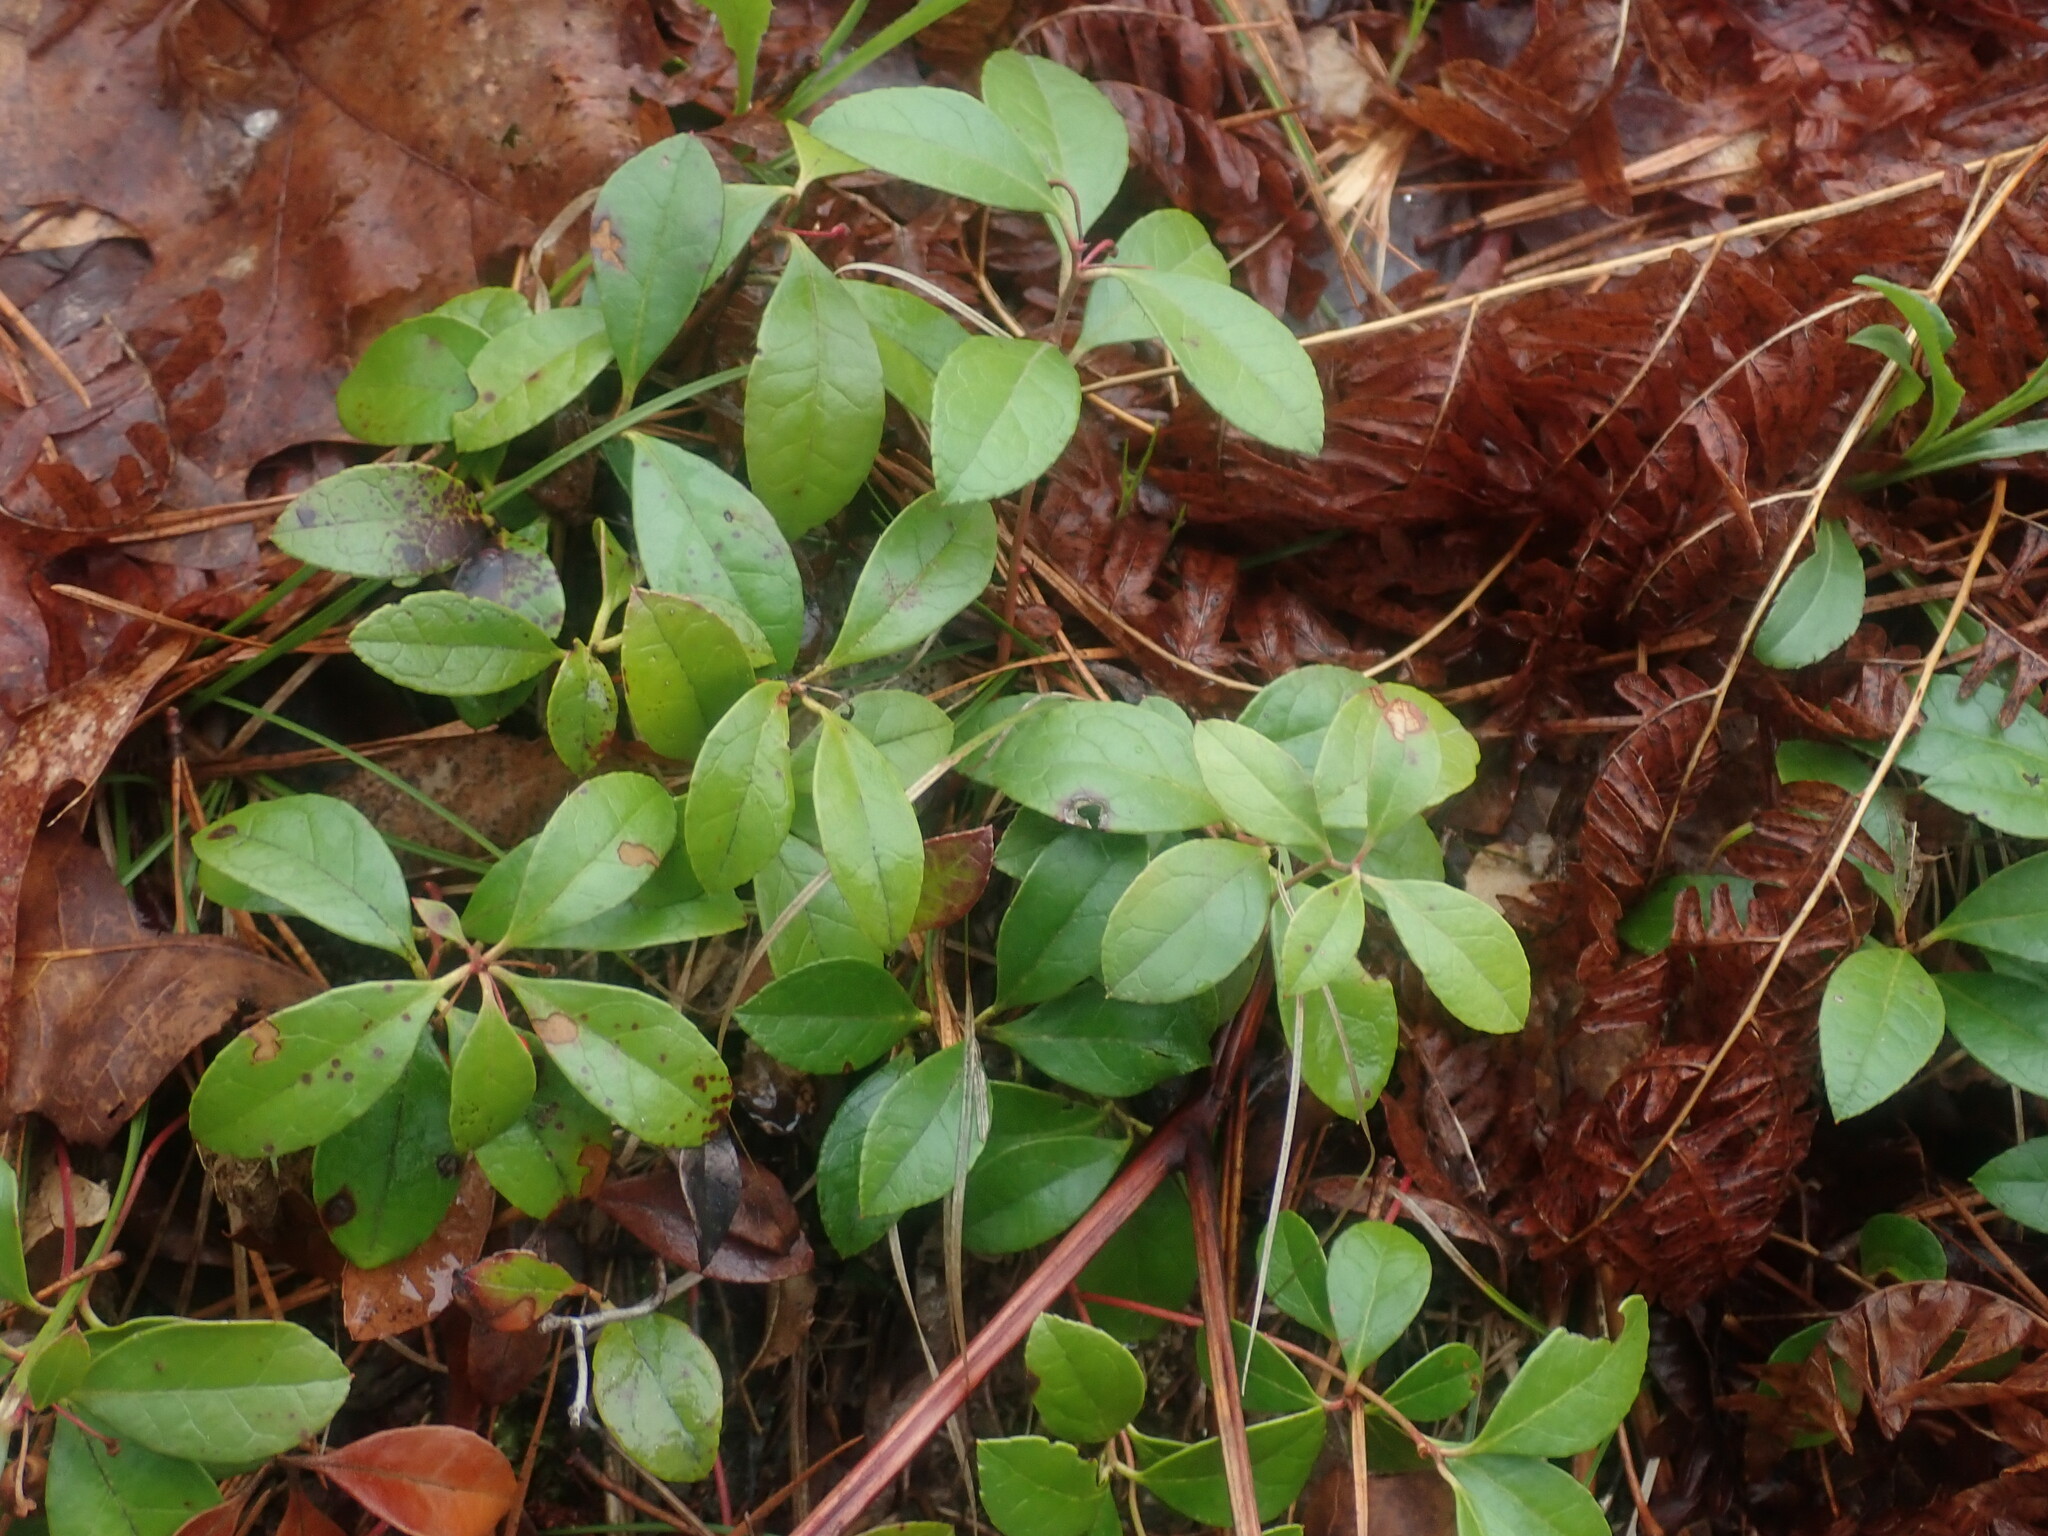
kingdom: Plantae
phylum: Tracheophyta
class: Magnoliopsida
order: Ericales
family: Ericaceae
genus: Gaultheria
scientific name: Gaultheria procumbens
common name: Checkerberry
